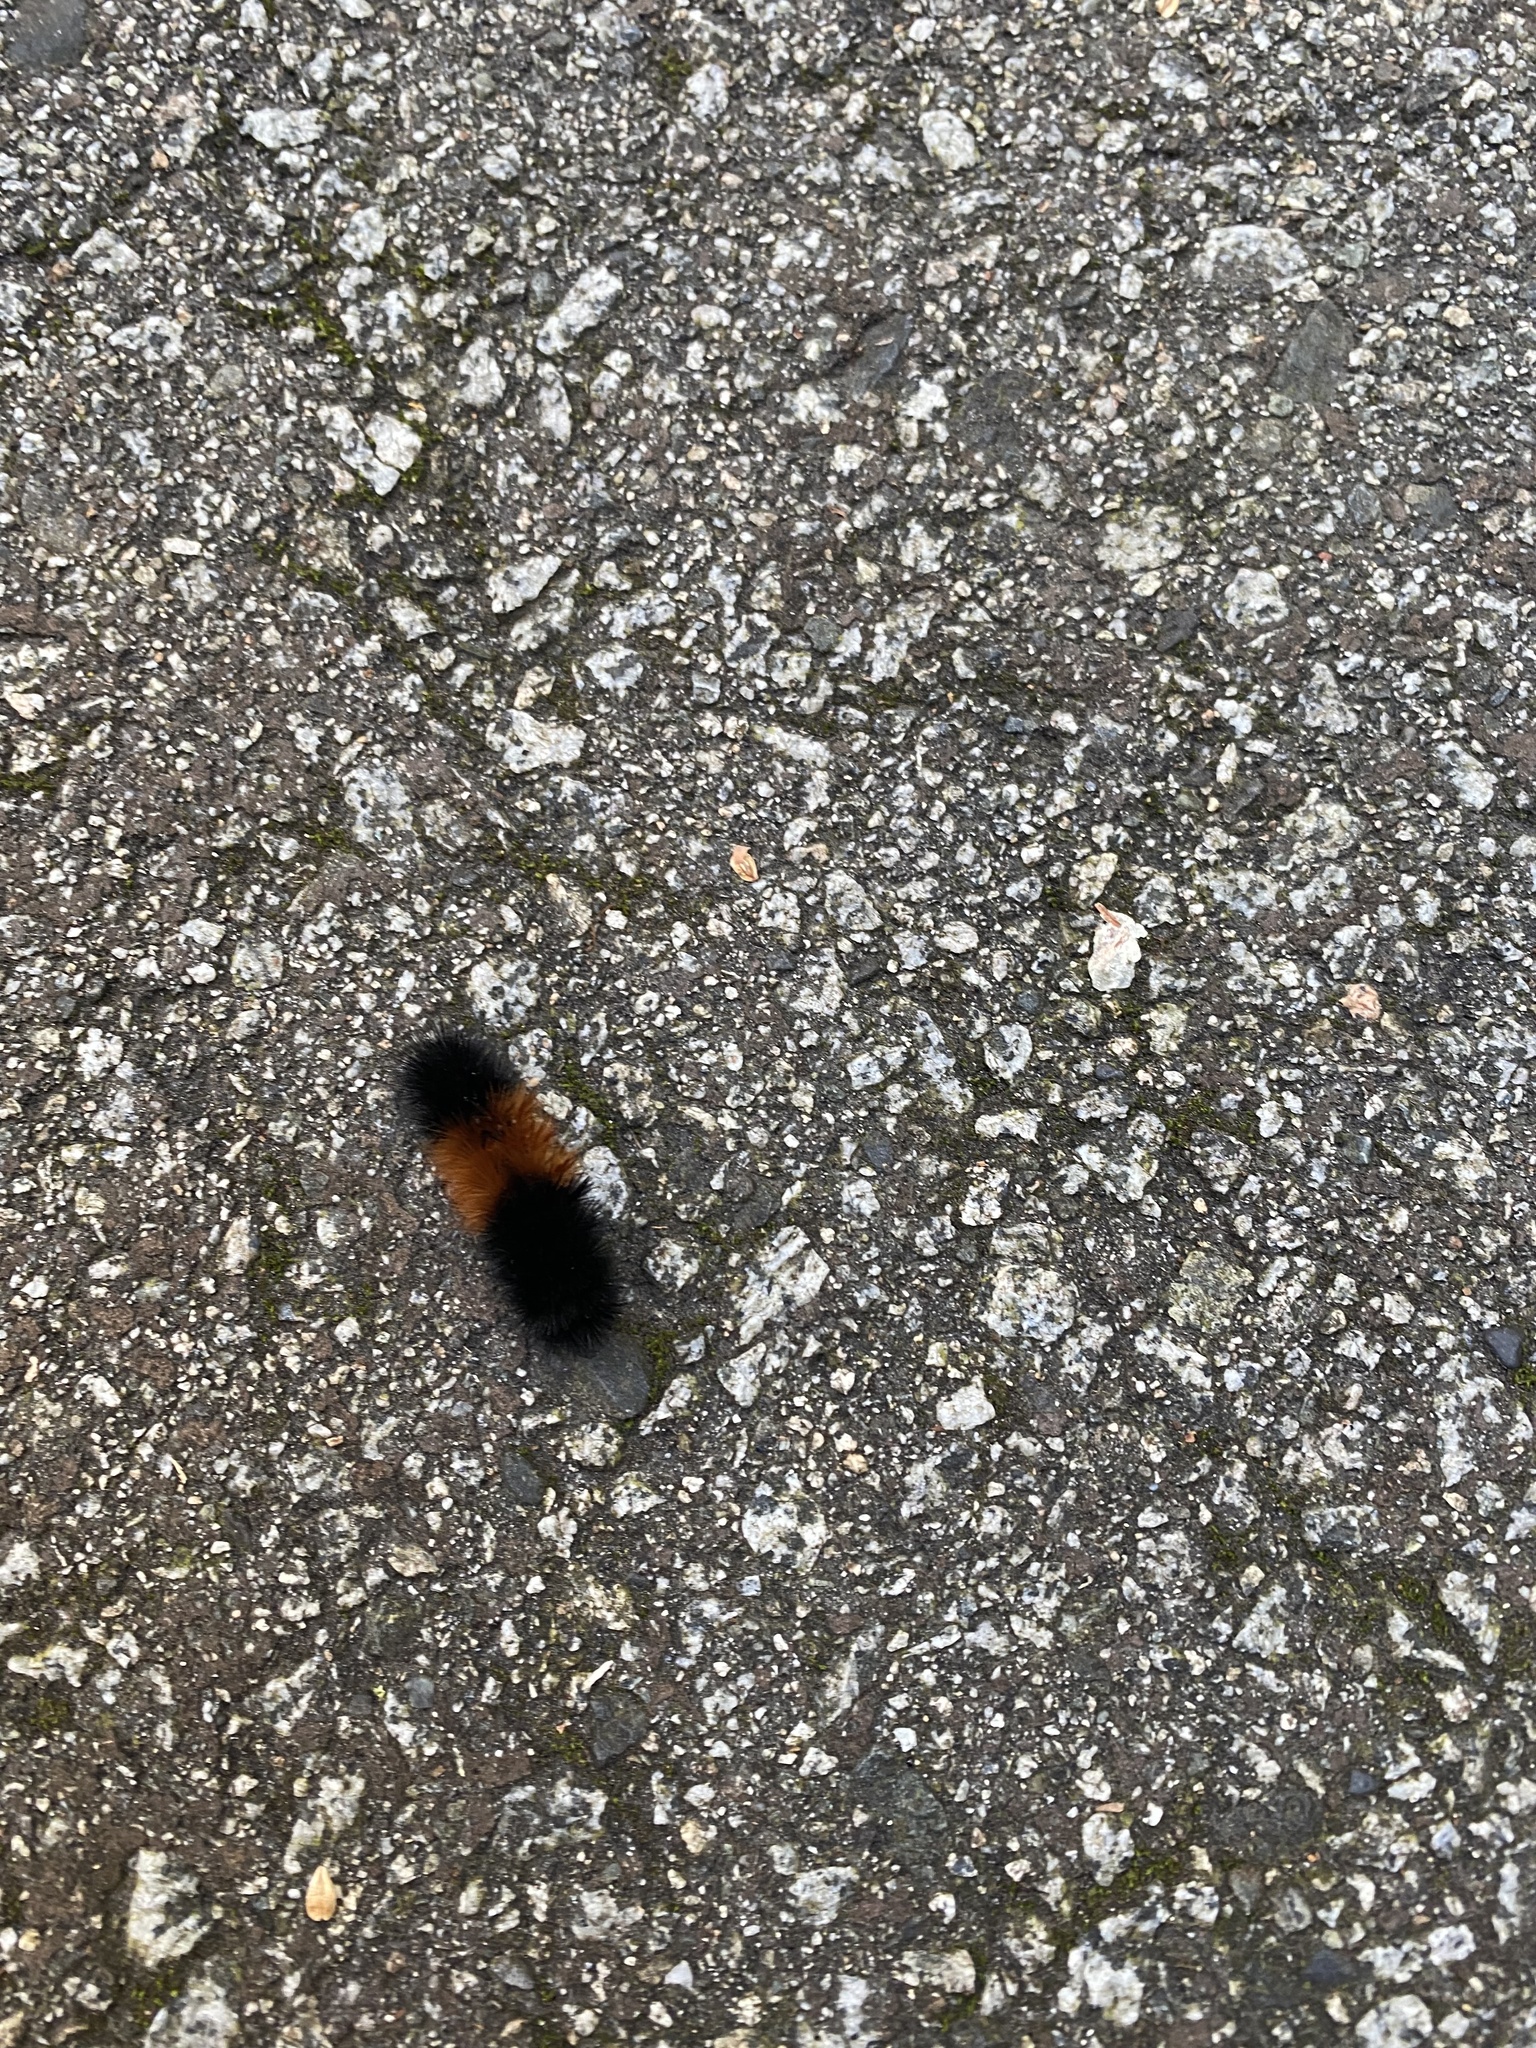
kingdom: Animalia
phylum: Arthropoda
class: Insecta
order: Lepidoptera
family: Erebidae
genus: Pyrrharctia
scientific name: Pyrrharctia isabella
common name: Isabella tiger moth
